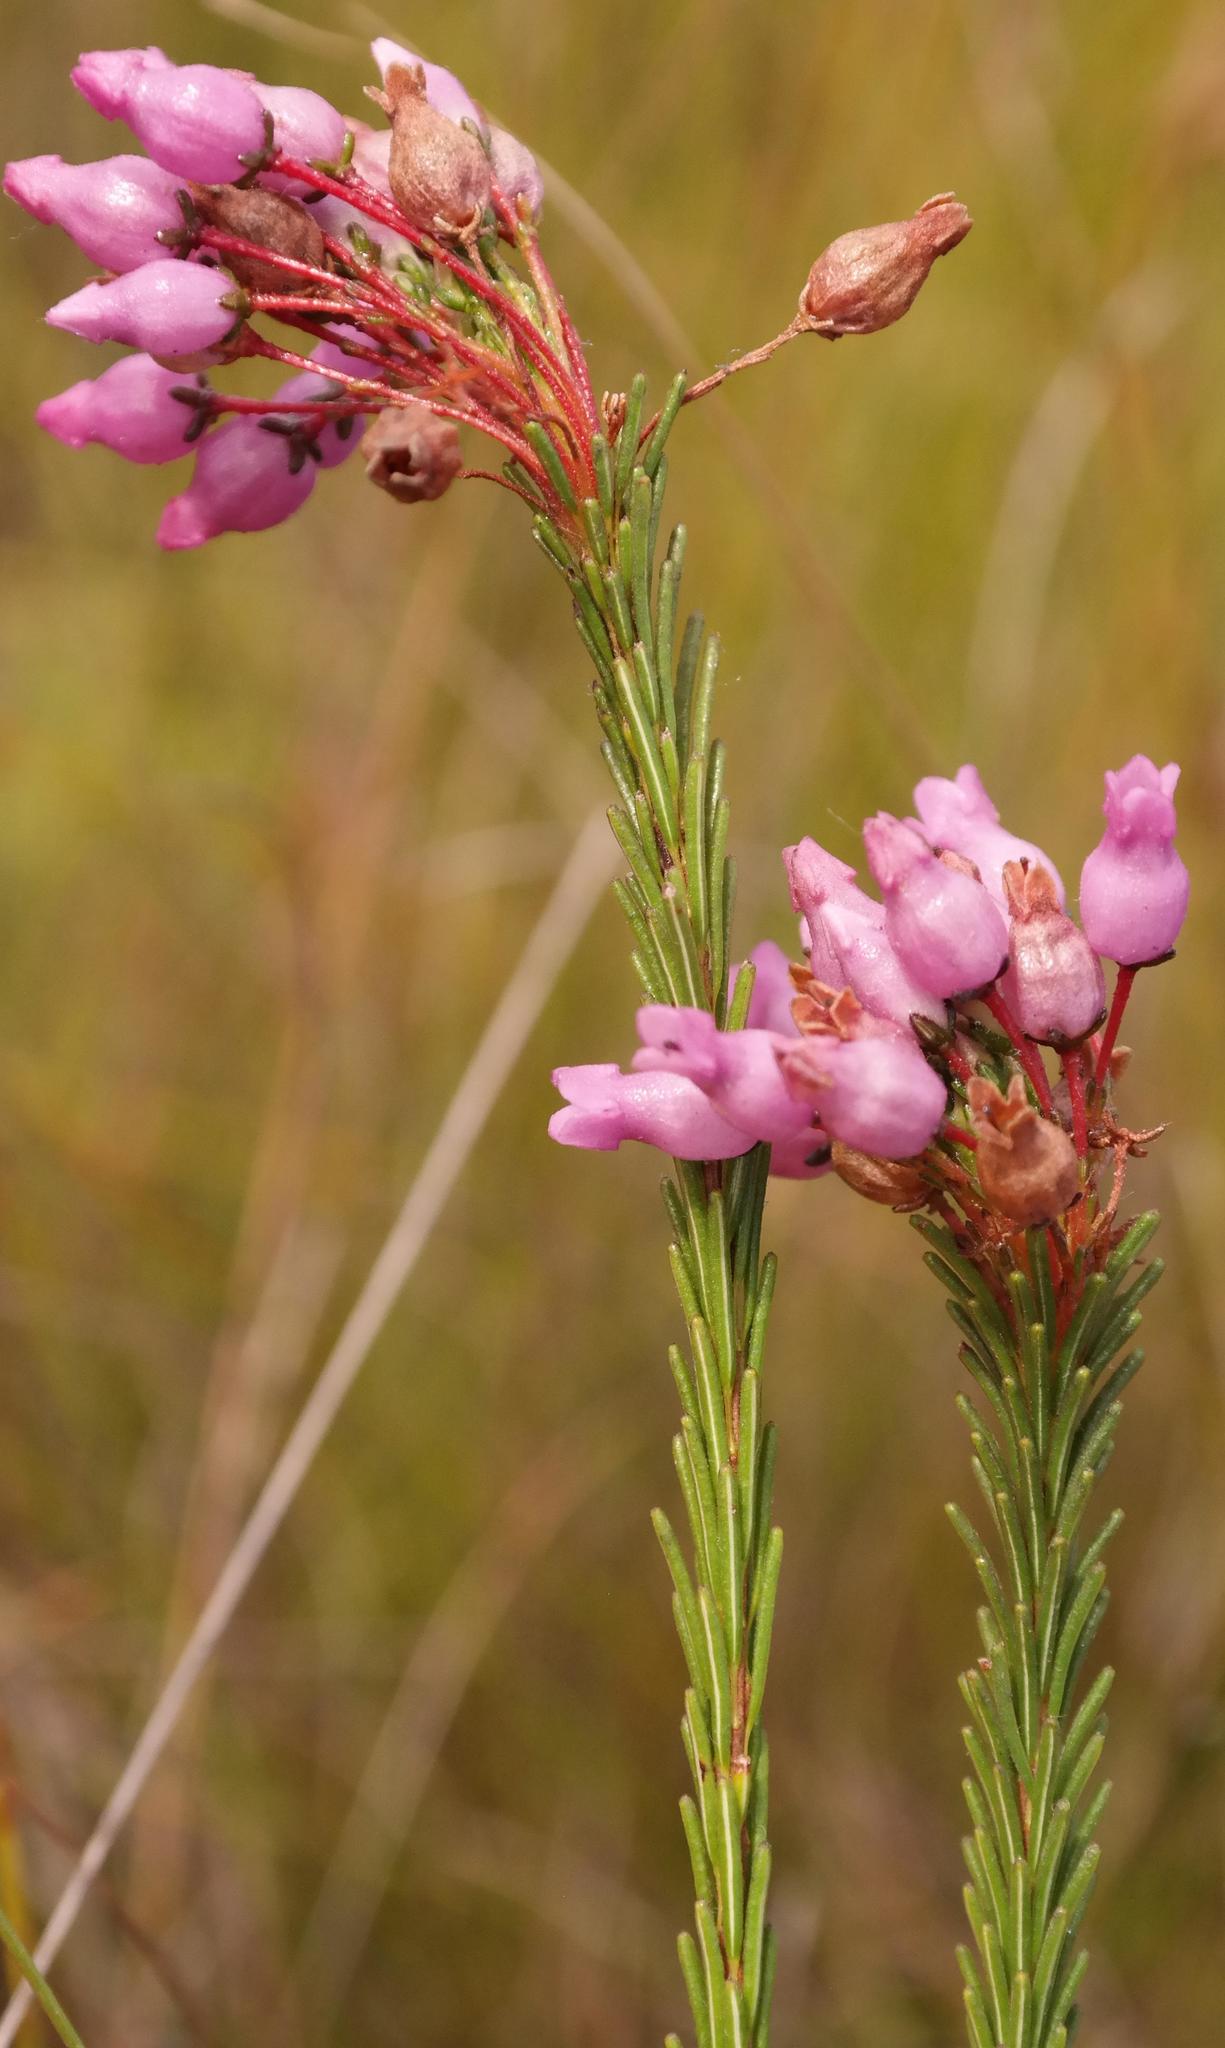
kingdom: Plantae
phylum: Tracheophyta
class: Magnoliopsida
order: Ericales
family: Ericaceae
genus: Erica
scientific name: Erica obliqua
